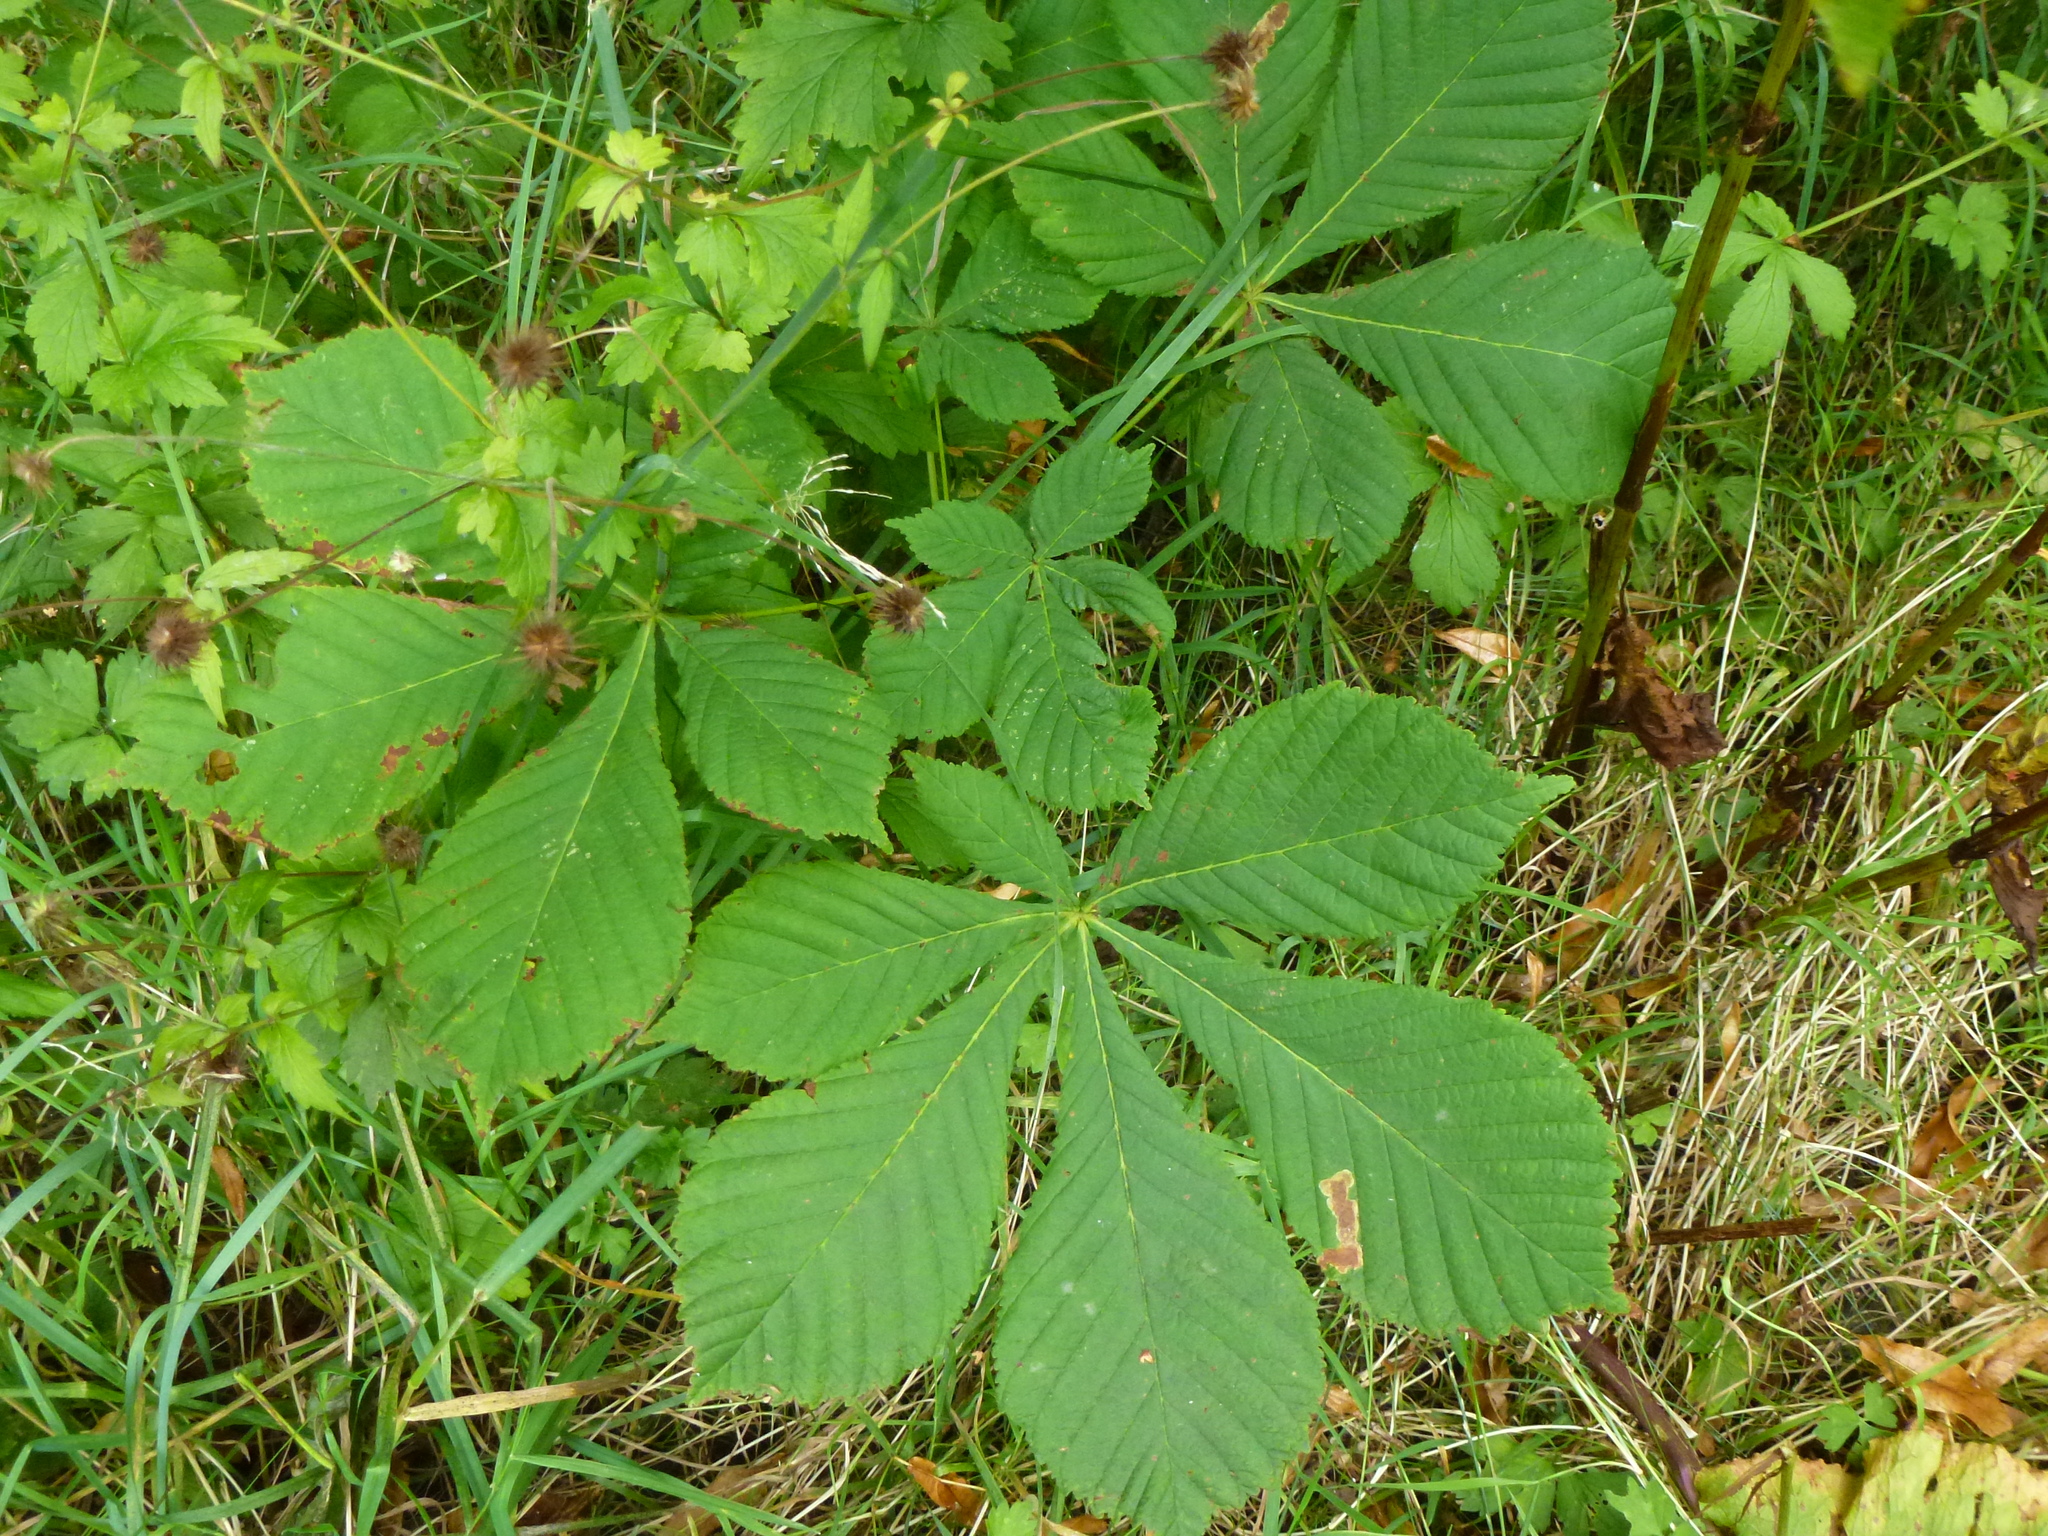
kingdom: Plantae
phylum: Tracheophyta
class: Magnoliopsida
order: Sapindales
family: Sapindaceae
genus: Aesculus
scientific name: Aesculus hippocastanum
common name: Horse-chestnut
